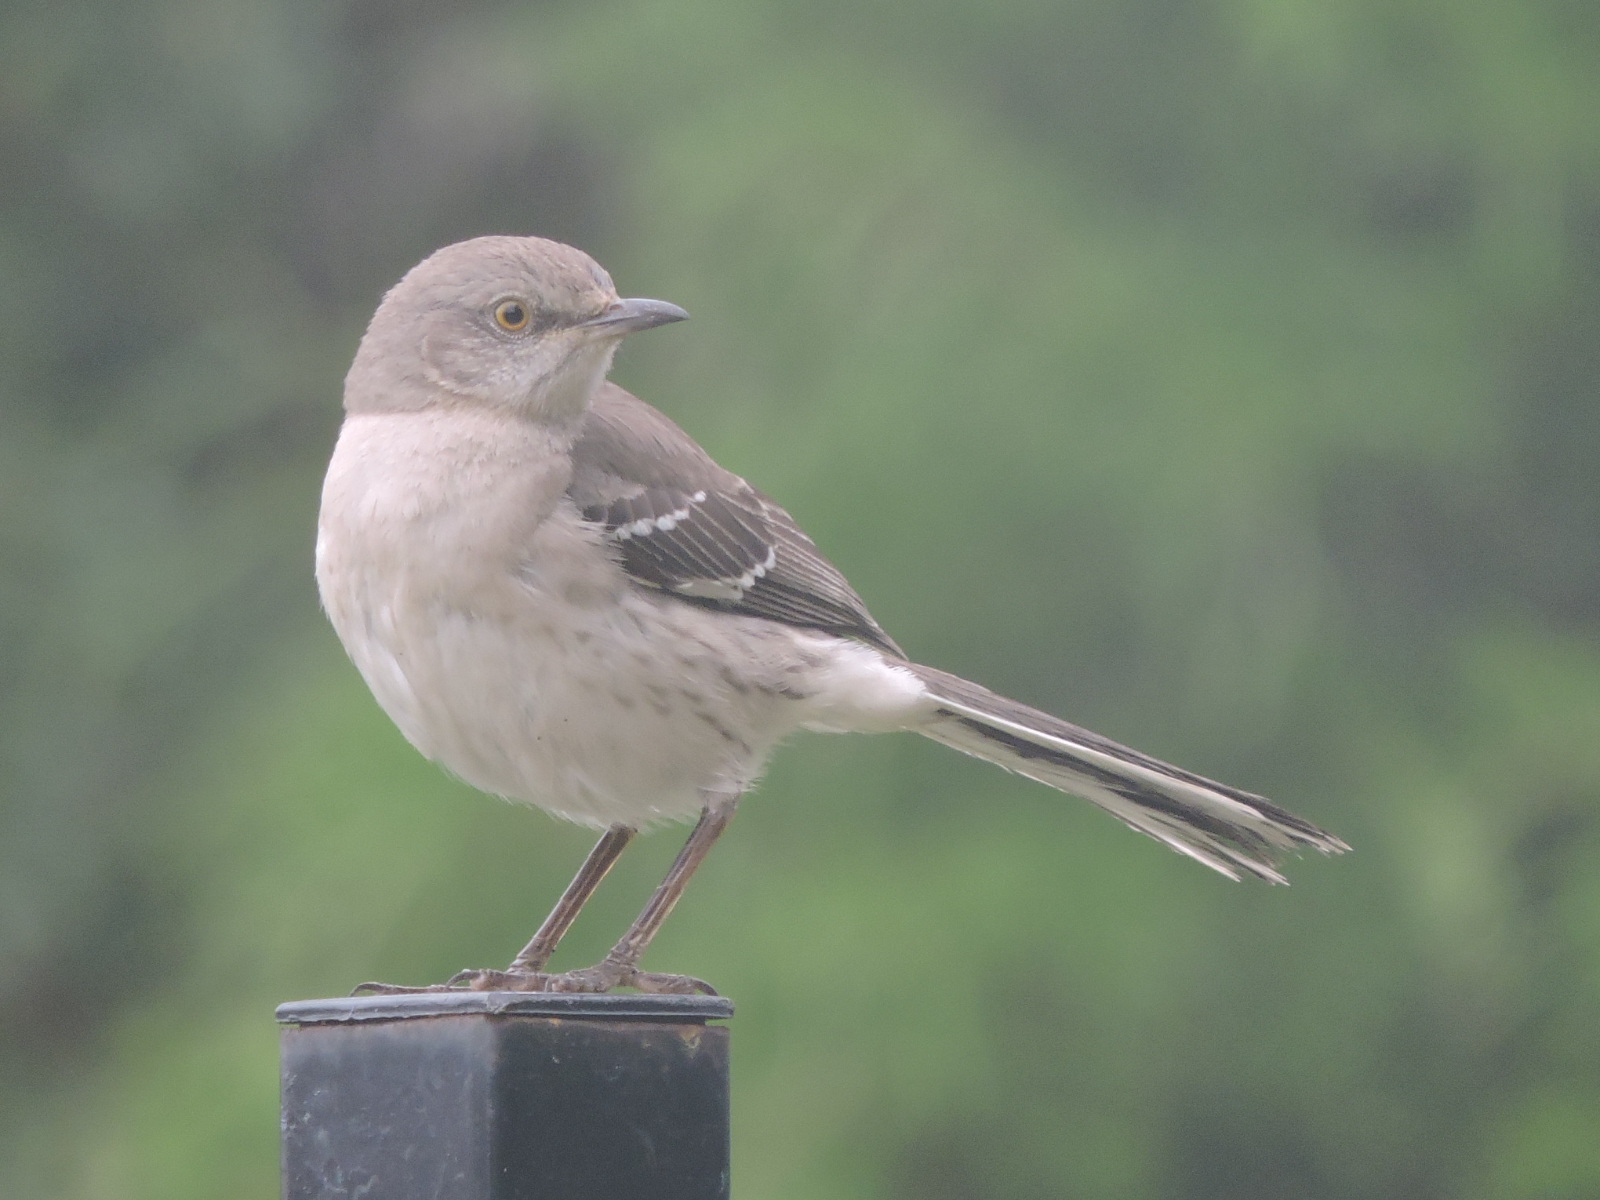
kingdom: Animalia
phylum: Chordata
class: Aves
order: Passeriformes
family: Mimidae
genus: Mimus
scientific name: Mimus polyglottos
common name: Northern mockingbird
